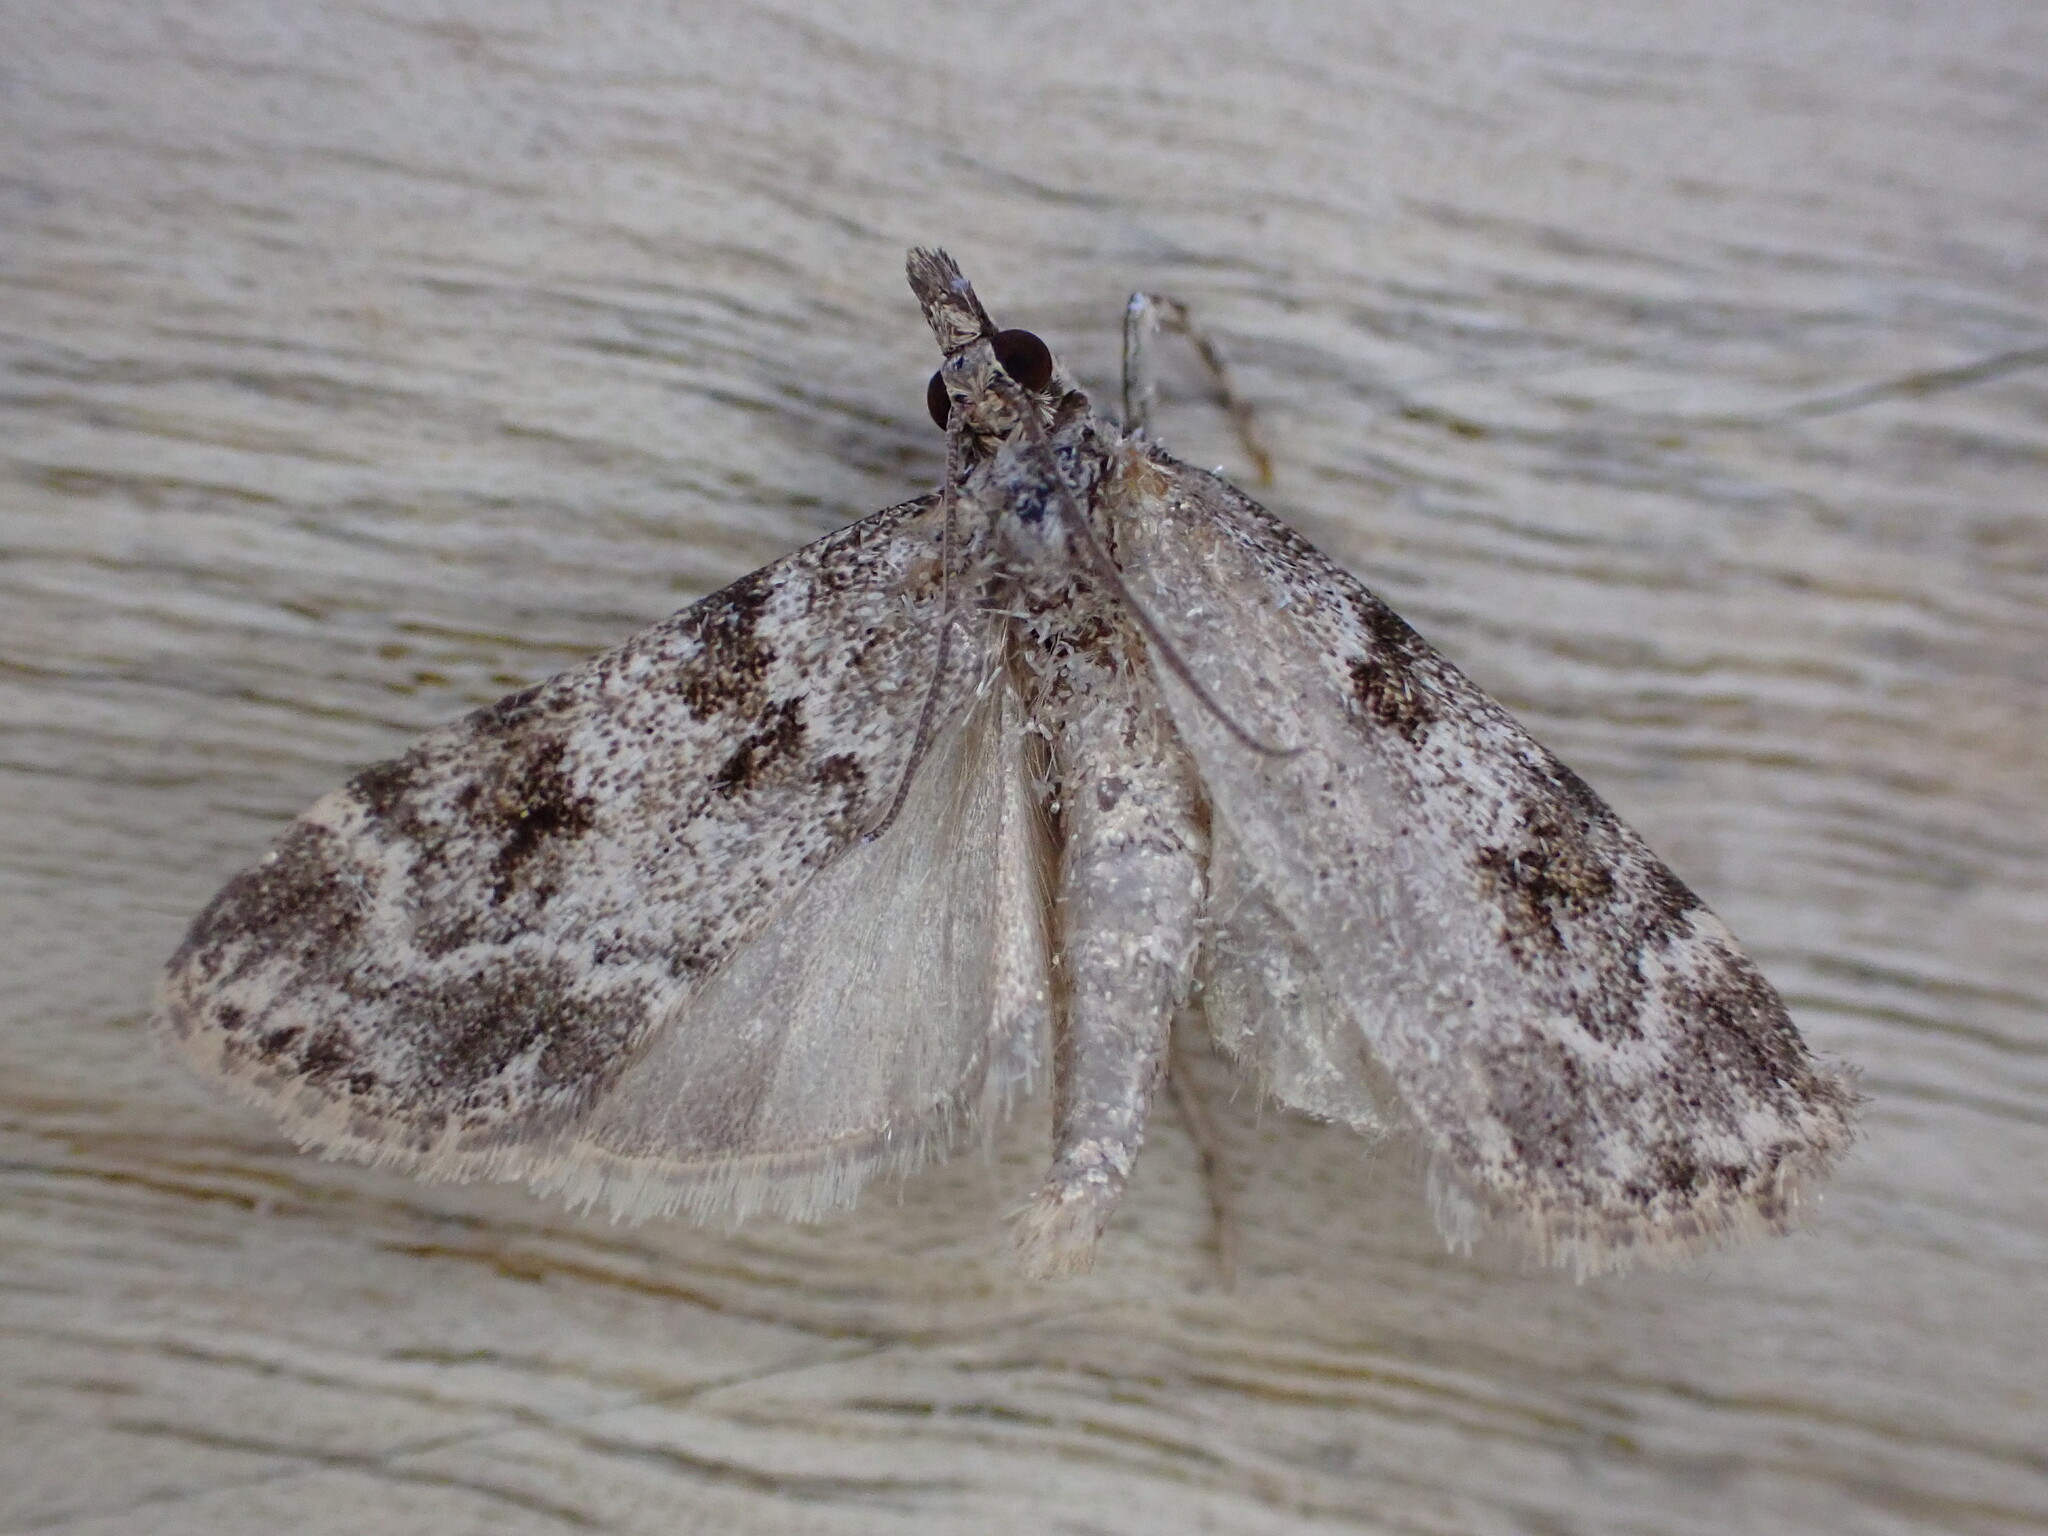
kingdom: Animalia
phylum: Arthropoda
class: Insecta
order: Lepidoptera
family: Crambidae
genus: Scoparia
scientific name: Scoparia ambigualis
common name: Common grey
